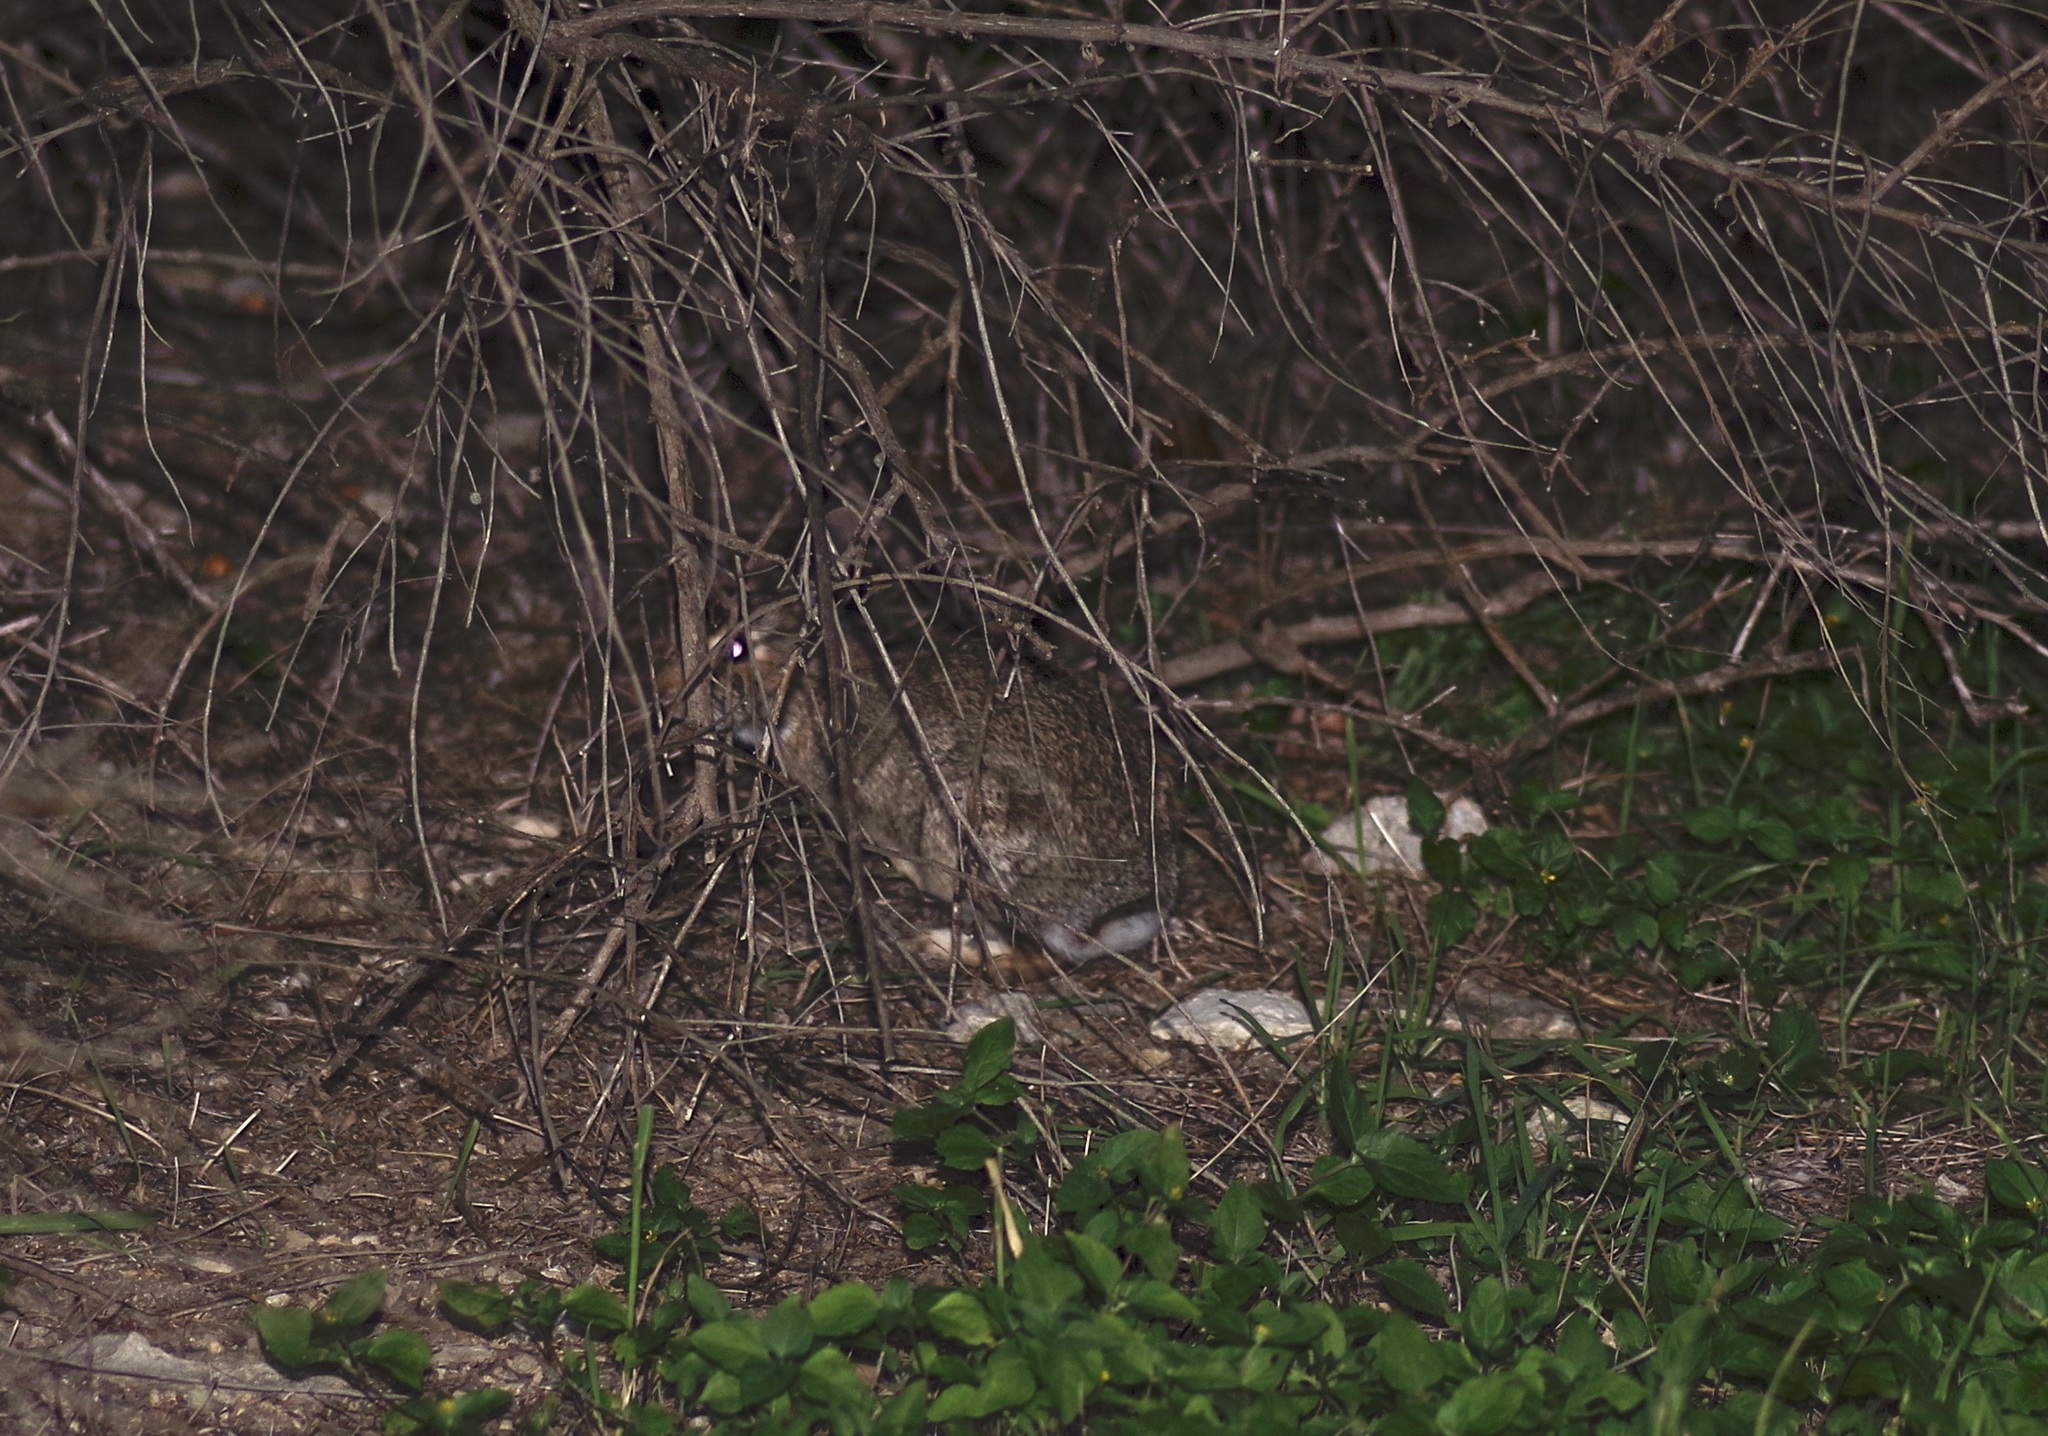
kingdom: Animalia
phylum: Chordata
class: Mammalia
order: Lagomorpha
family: Leporidae
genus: Sylvilagus
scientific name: Sylvilagus floridanus
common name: Eastern cottontail
